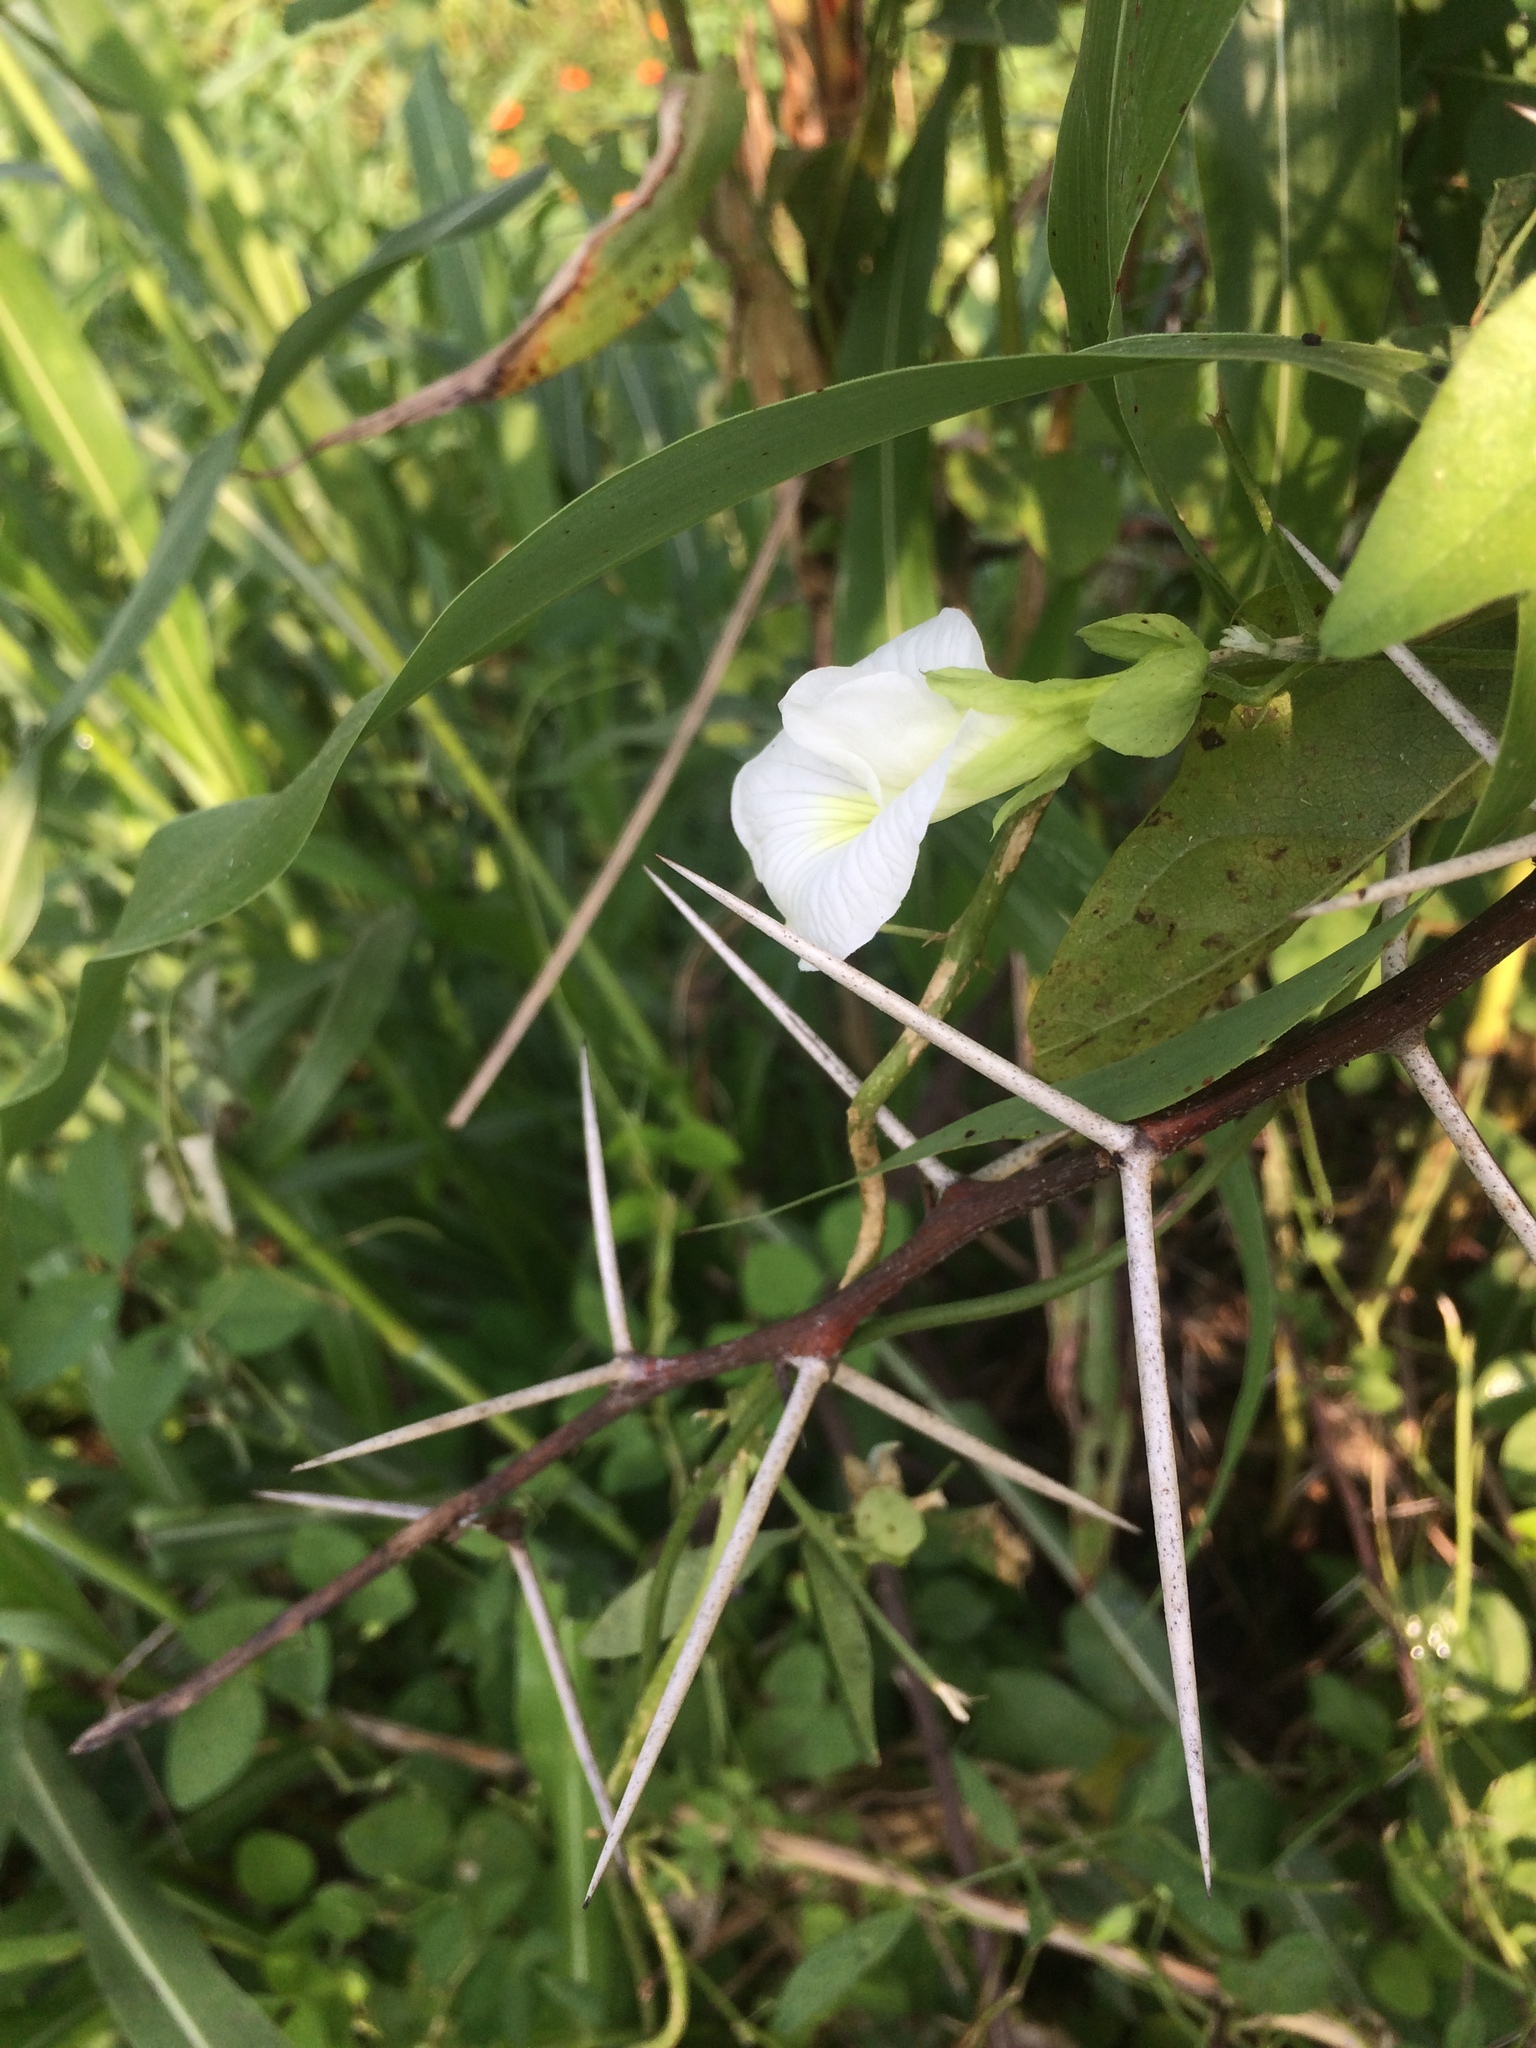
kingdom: Plantae
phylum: Tracheophyta
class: Magnoliopsida
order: Fabales
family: Fabaceae
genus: Clitoria
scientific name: Clitoria ternatea
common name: Asian pigeonwings
